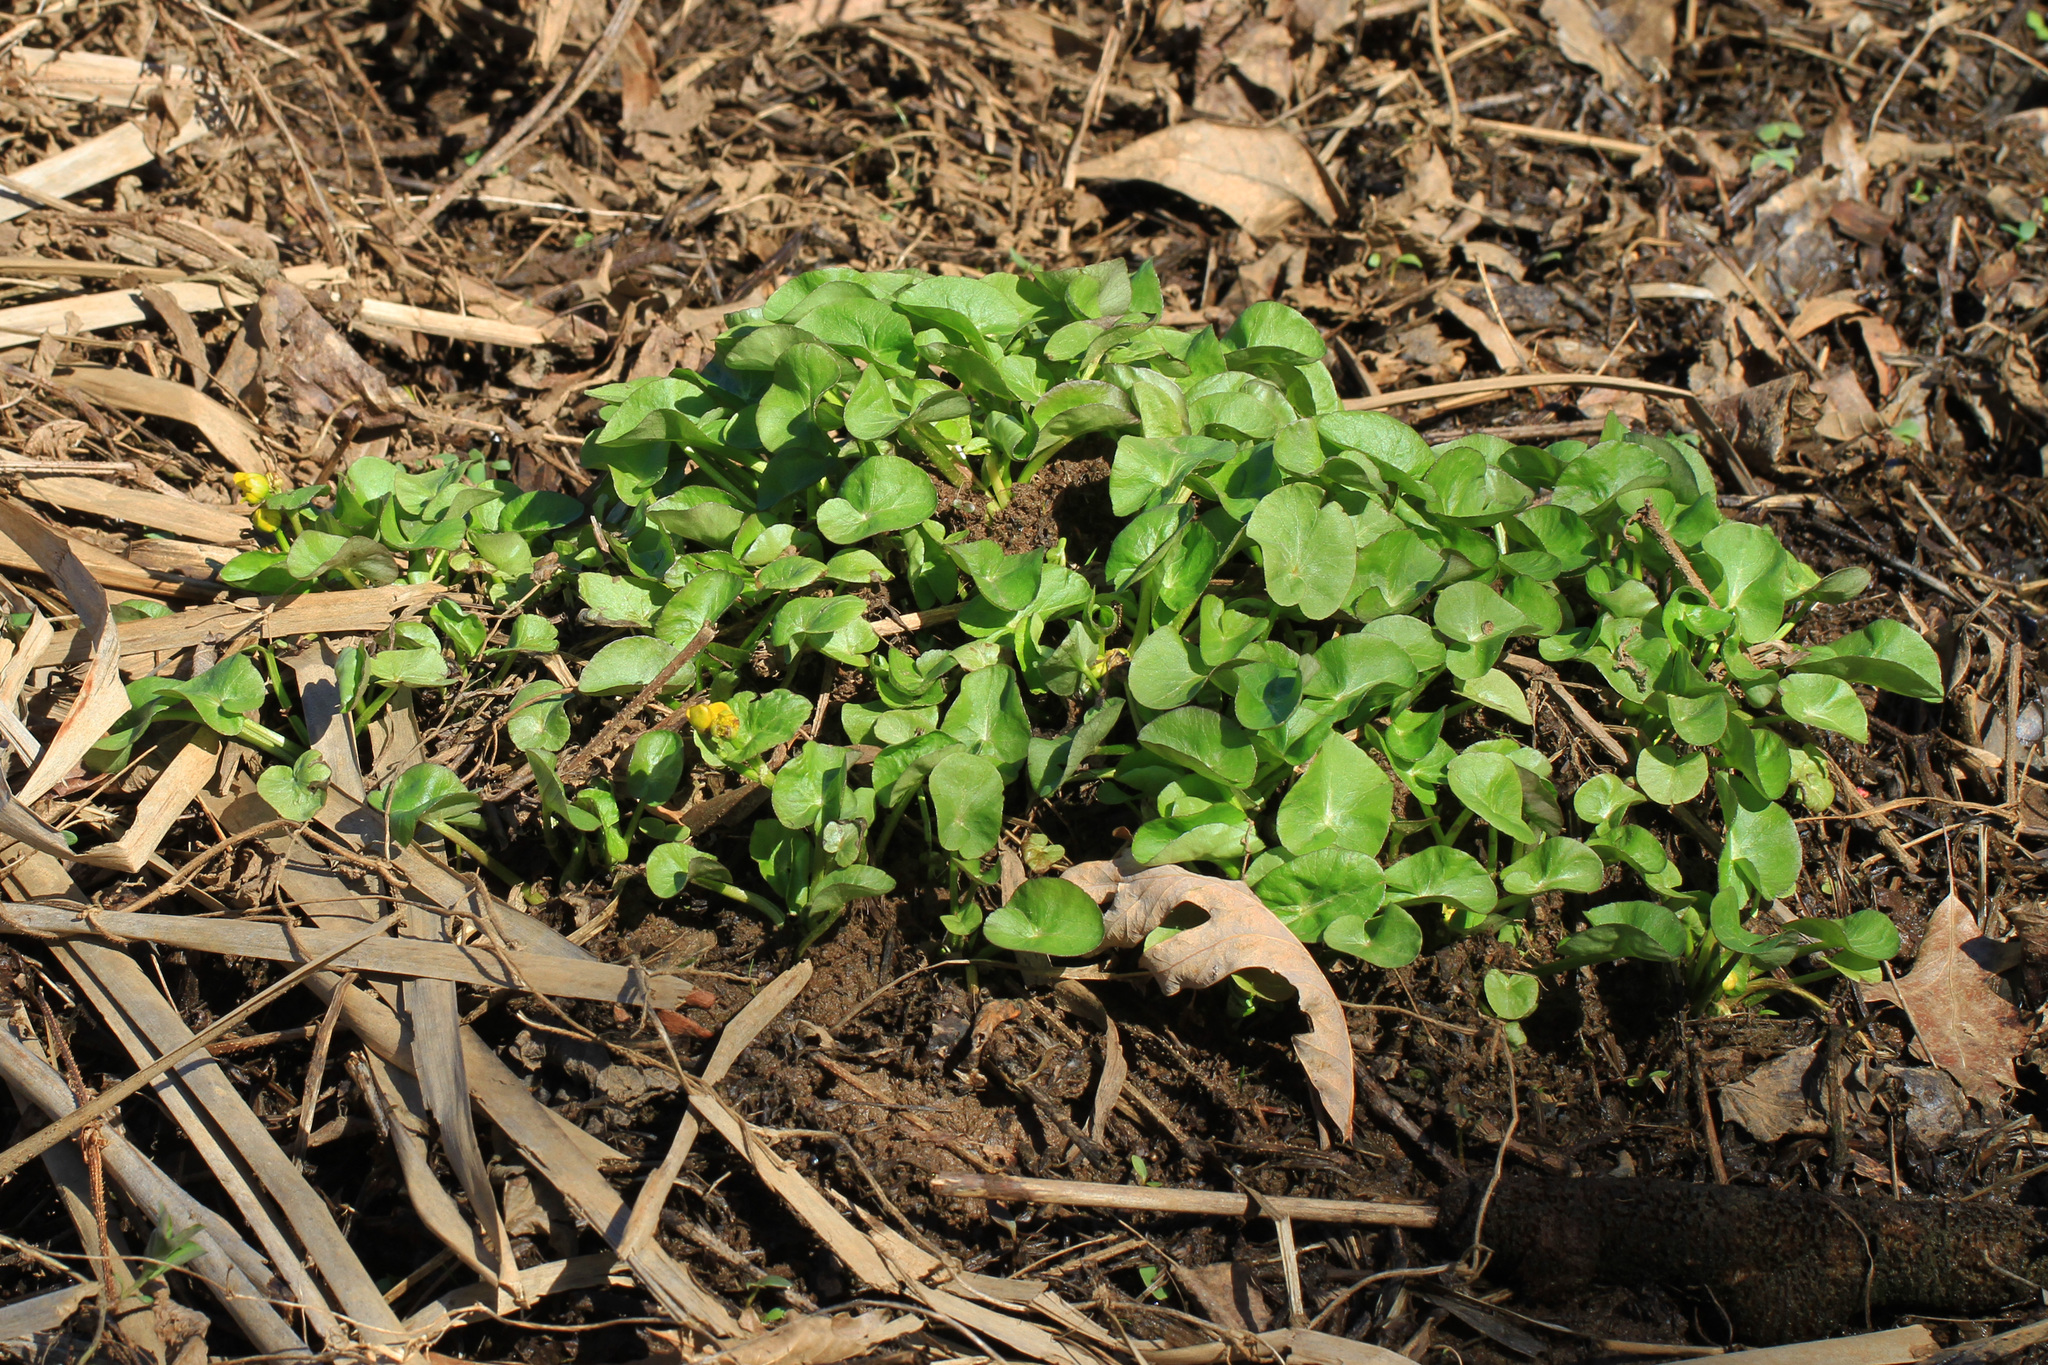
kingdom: Plantae
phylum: Tracheophyta
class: Magnoliopsida
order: Ranunculales
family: Ranunculaceae
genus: Ficaria
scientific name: Ficaria verna
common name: Lesser celandine
